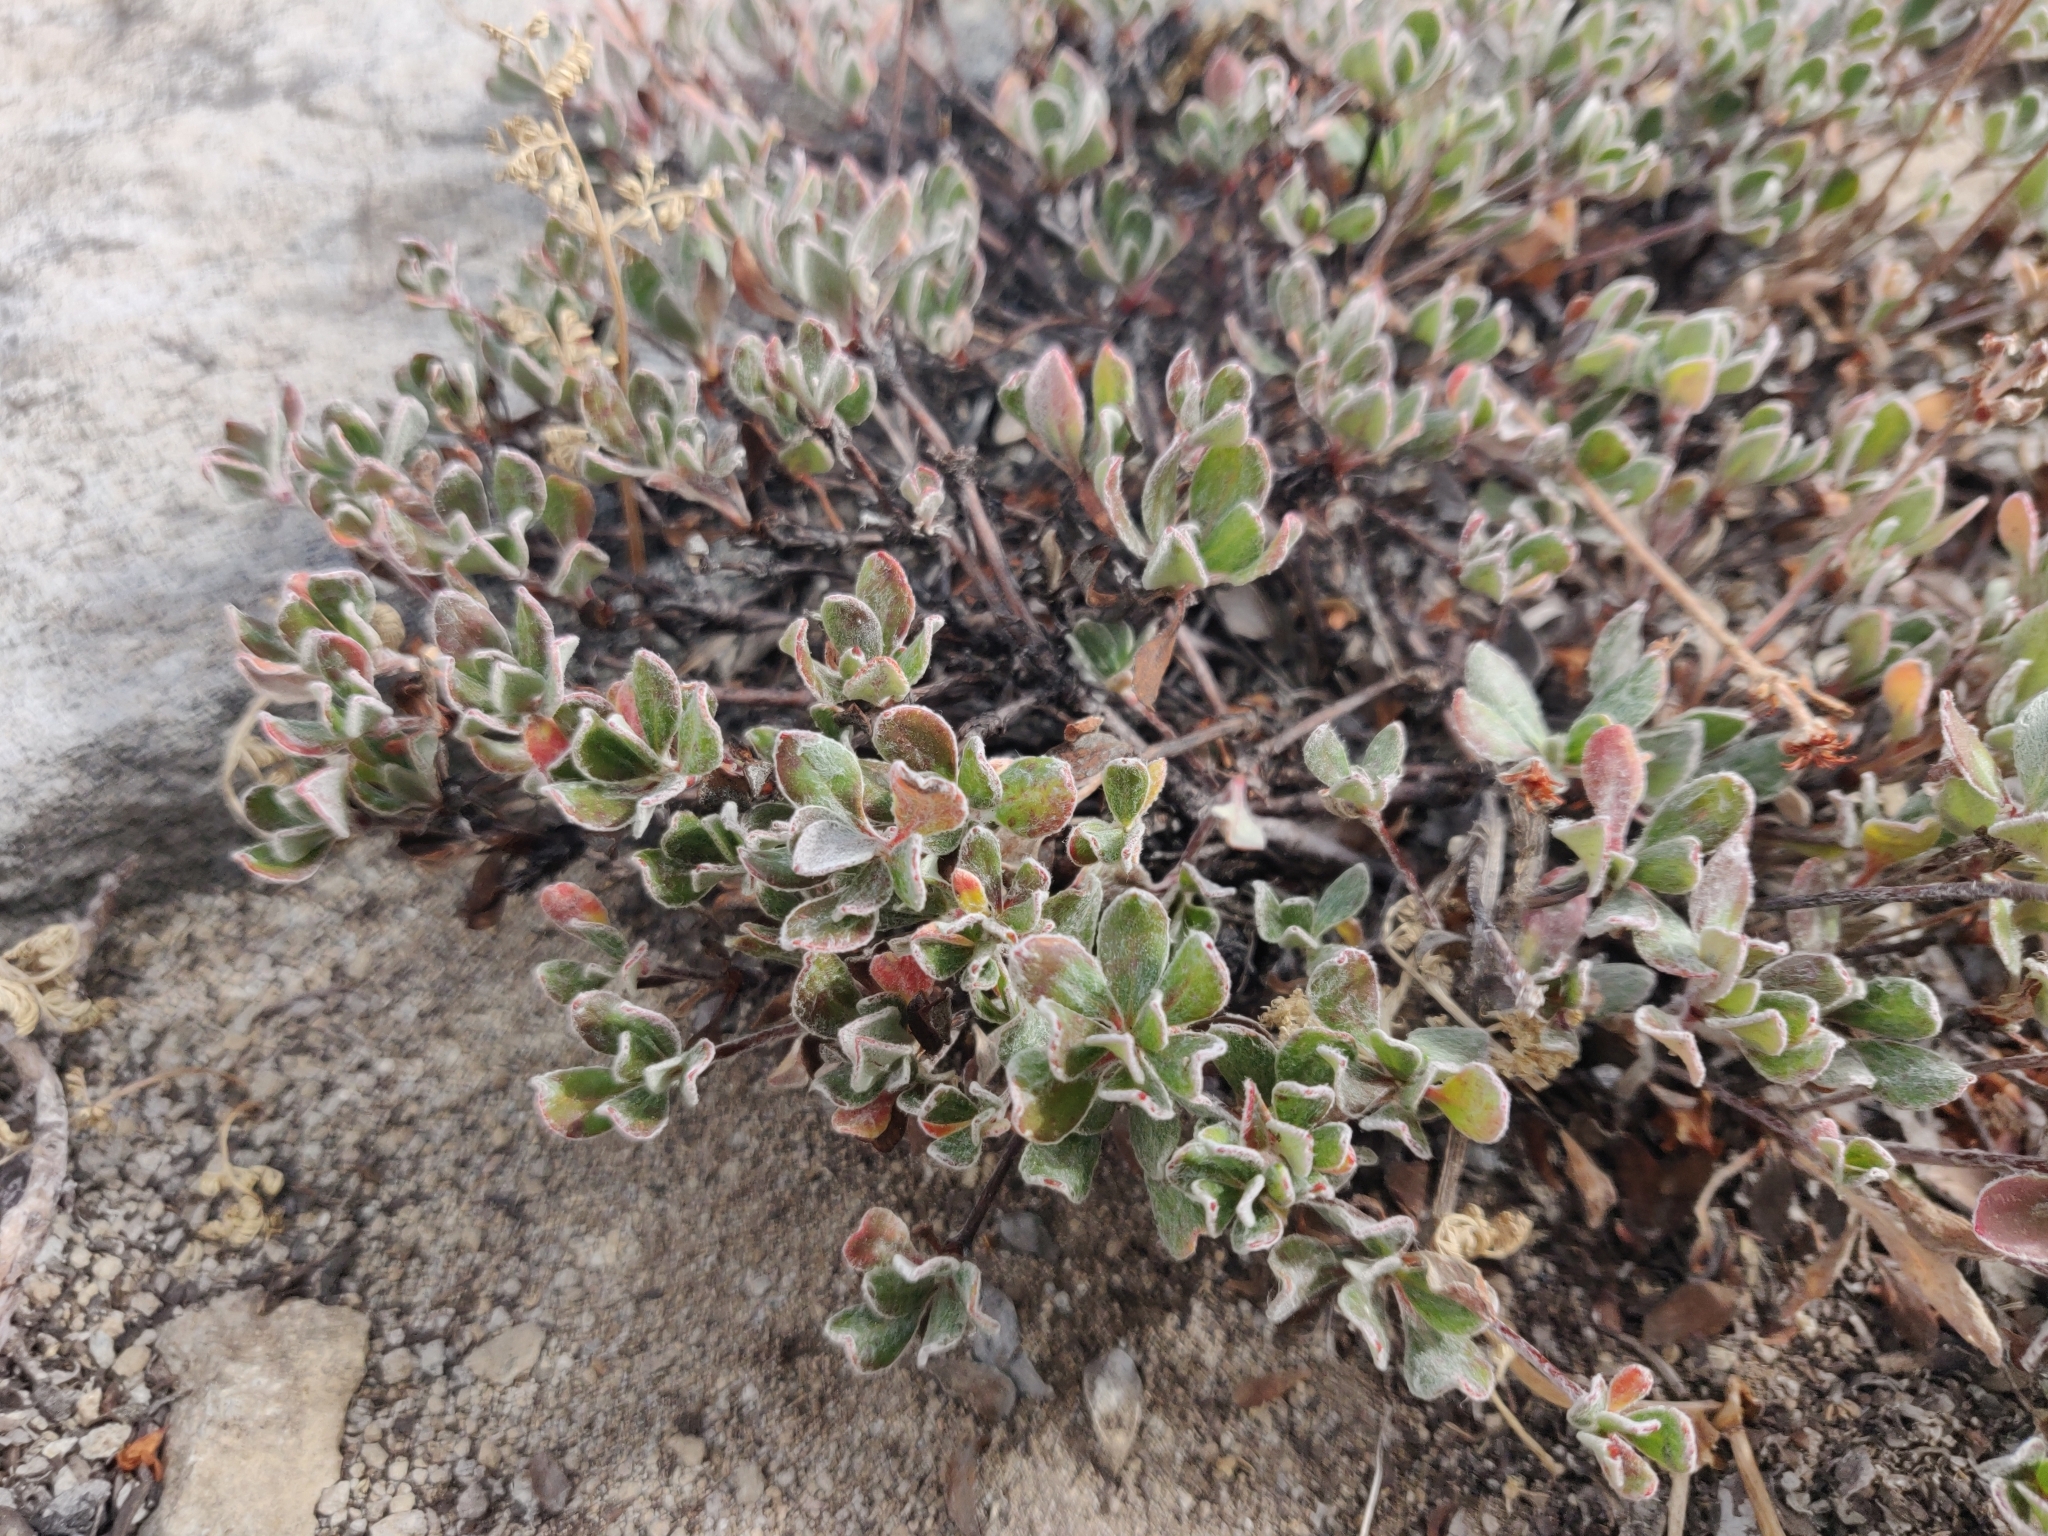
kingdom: Plantae
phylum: Tracheophyta
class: Magnoliopsida
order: Caryophyllales
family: Polygonaceae
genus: Eriogonum
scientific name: Eriogonum nudum
